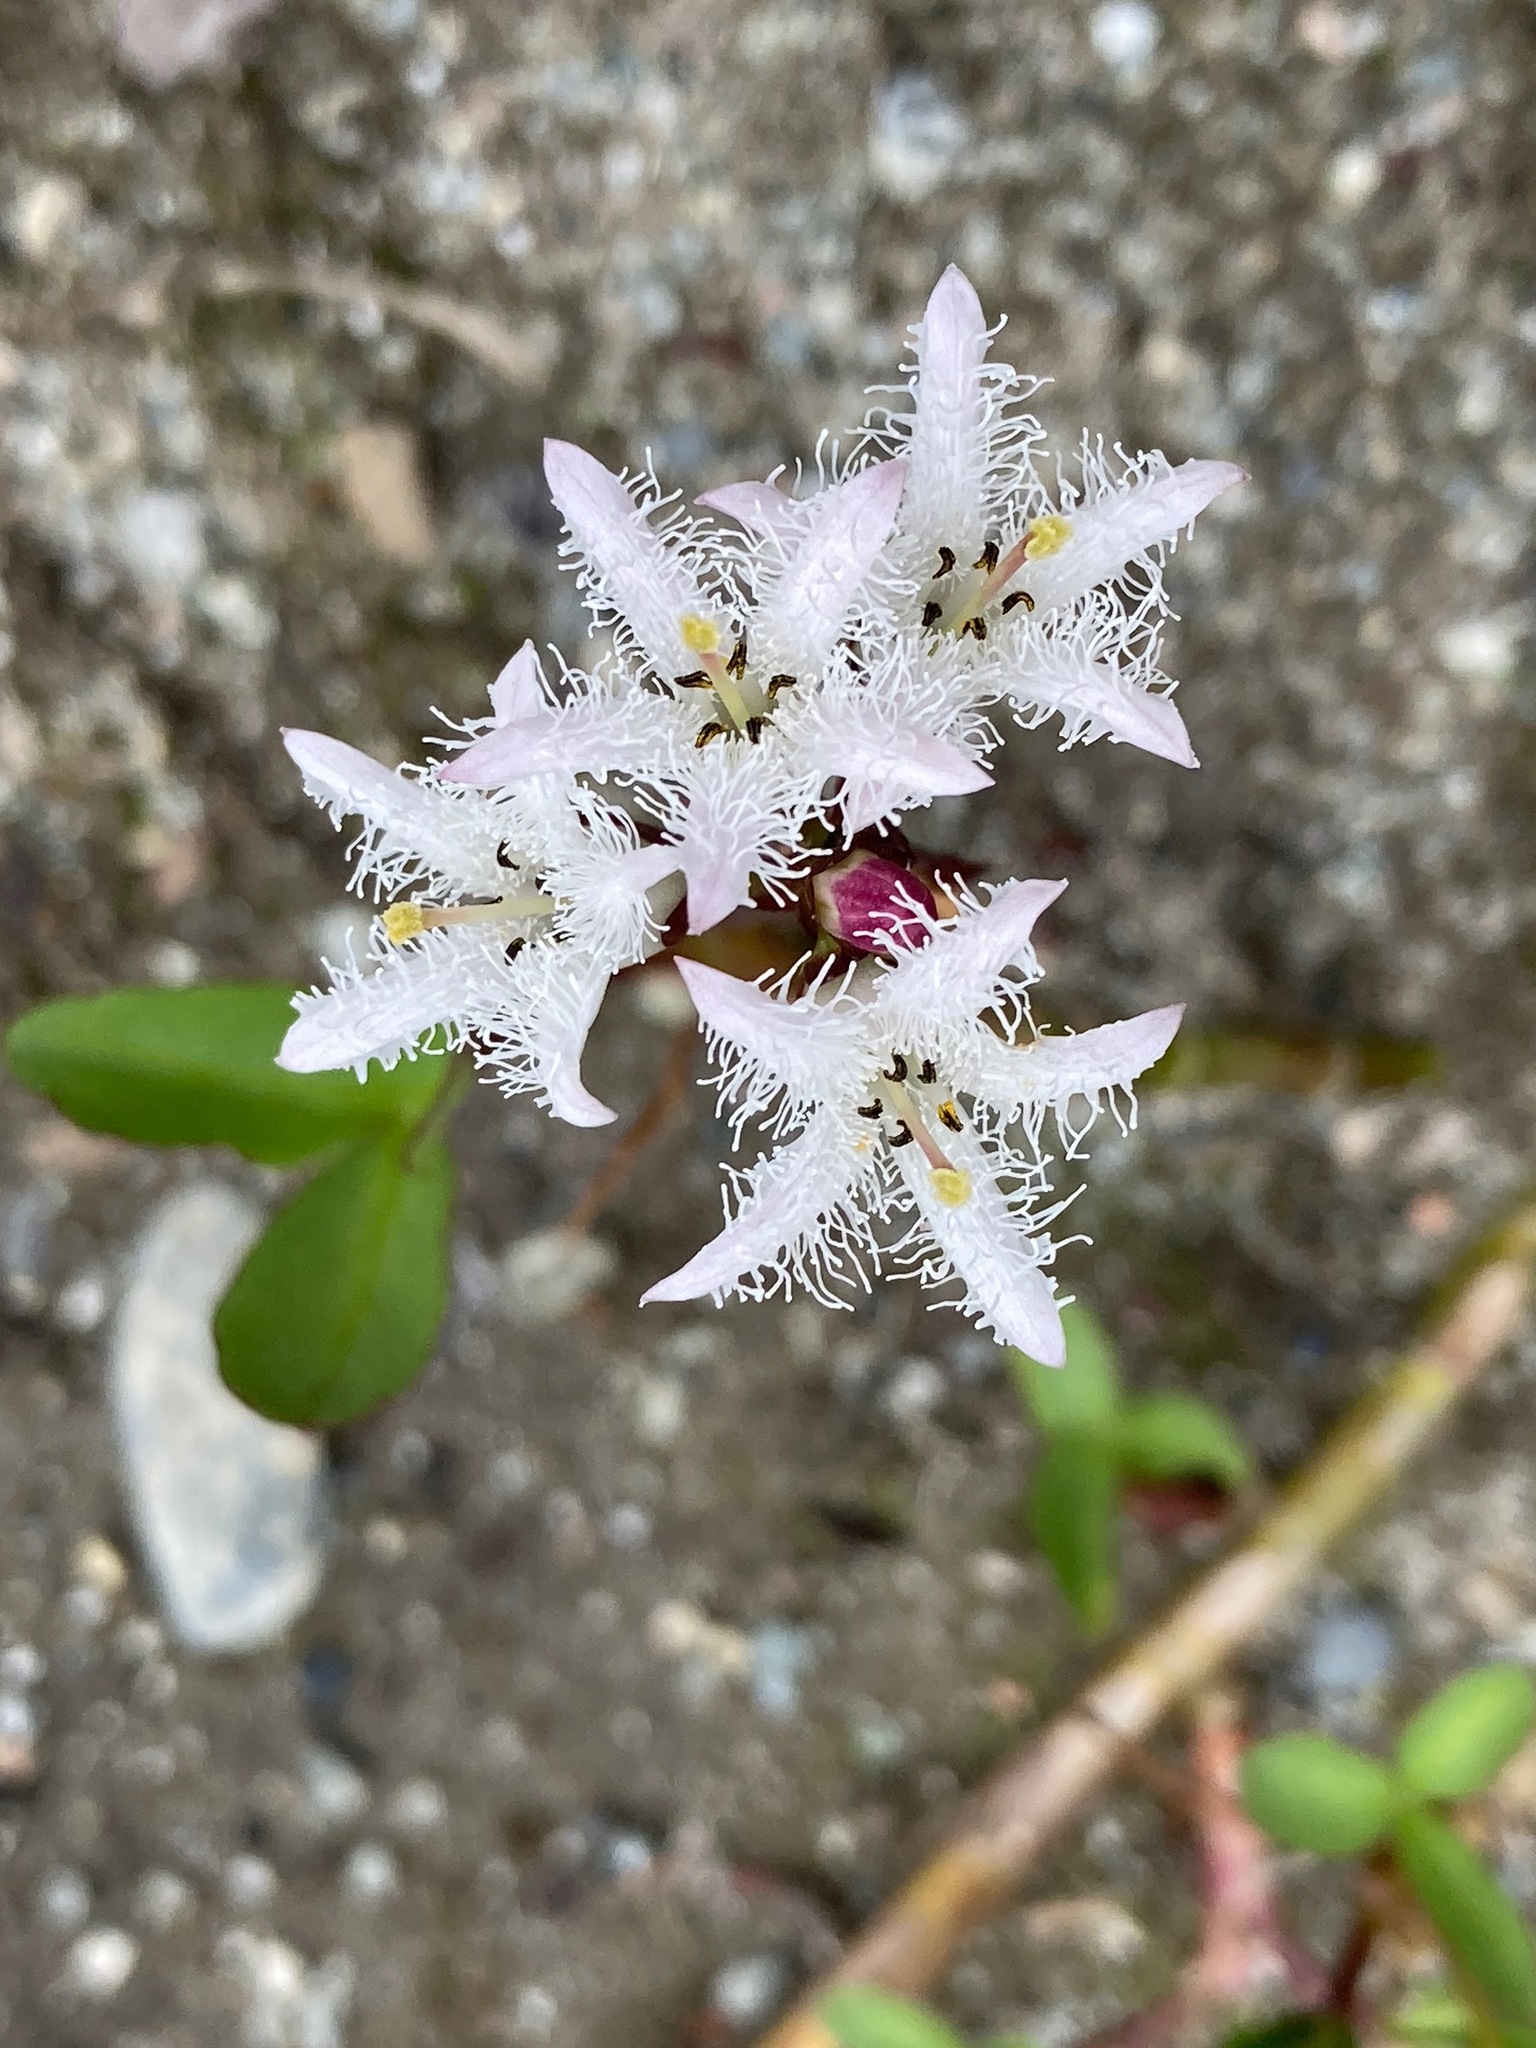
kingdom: Plantae
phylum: Tracheophyta
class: Magnoliopsida
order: Asterales
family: Menyanthaceae
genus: Menyanthes
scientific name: Menyanthes trifoliata
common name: Bogbean
